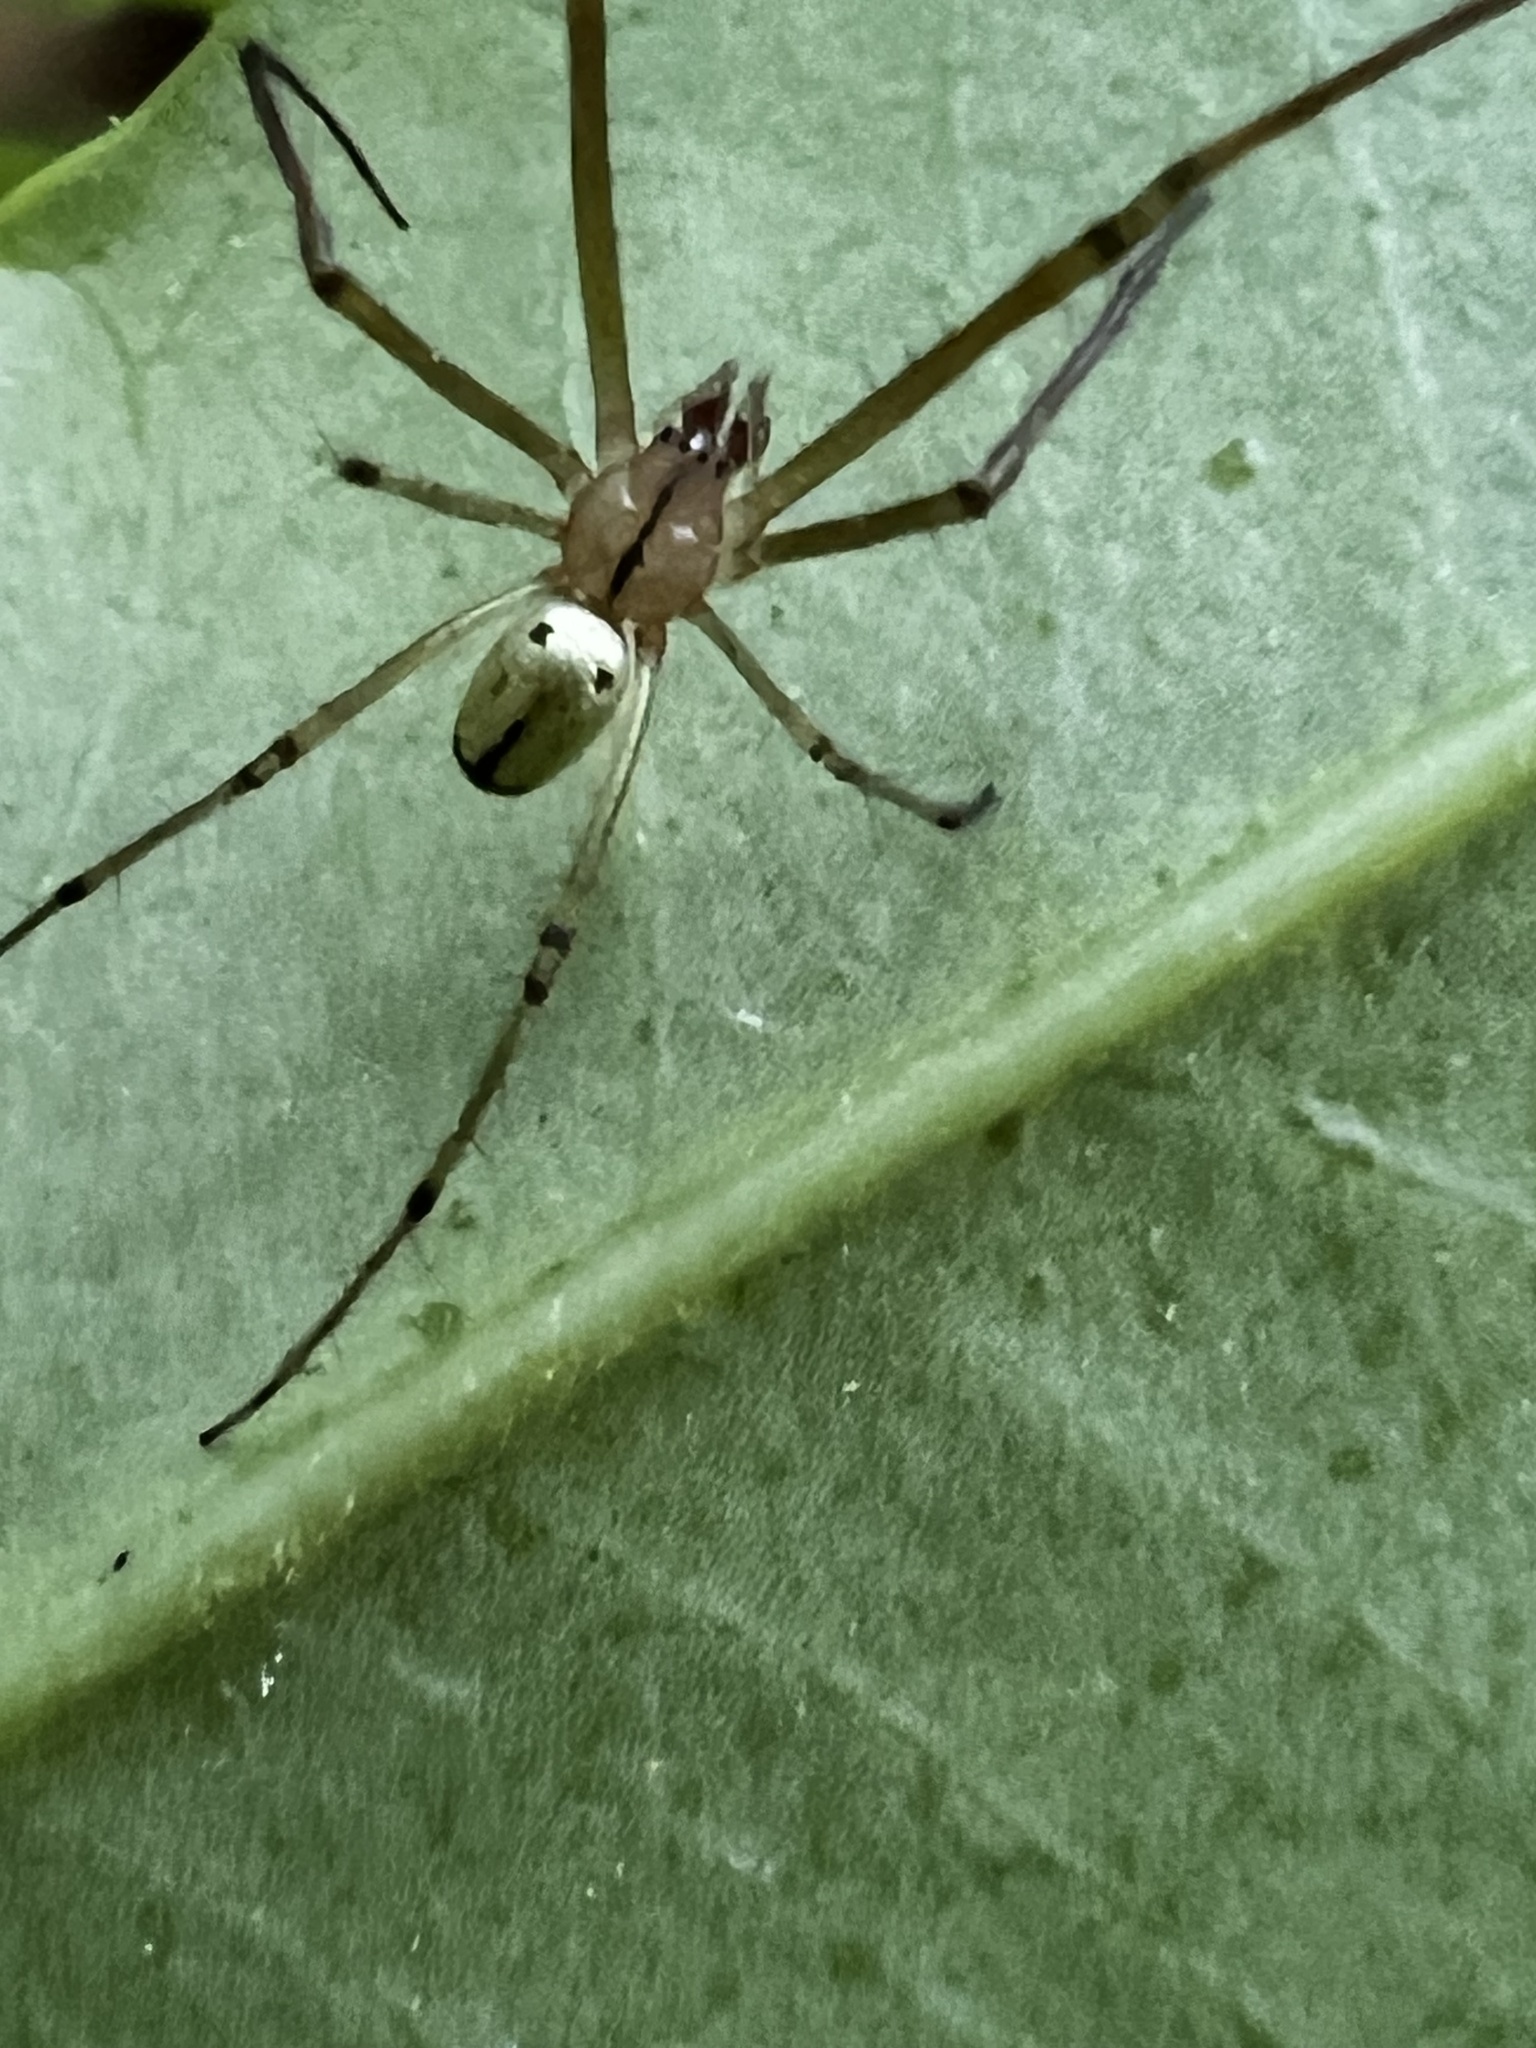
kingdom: Animalia
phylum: Arthropoda
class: Arachnida
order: Araneae
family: Tetragnathidae
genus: Leucauge
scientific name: Leucauge venusta
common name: Longjawed orb weavers
